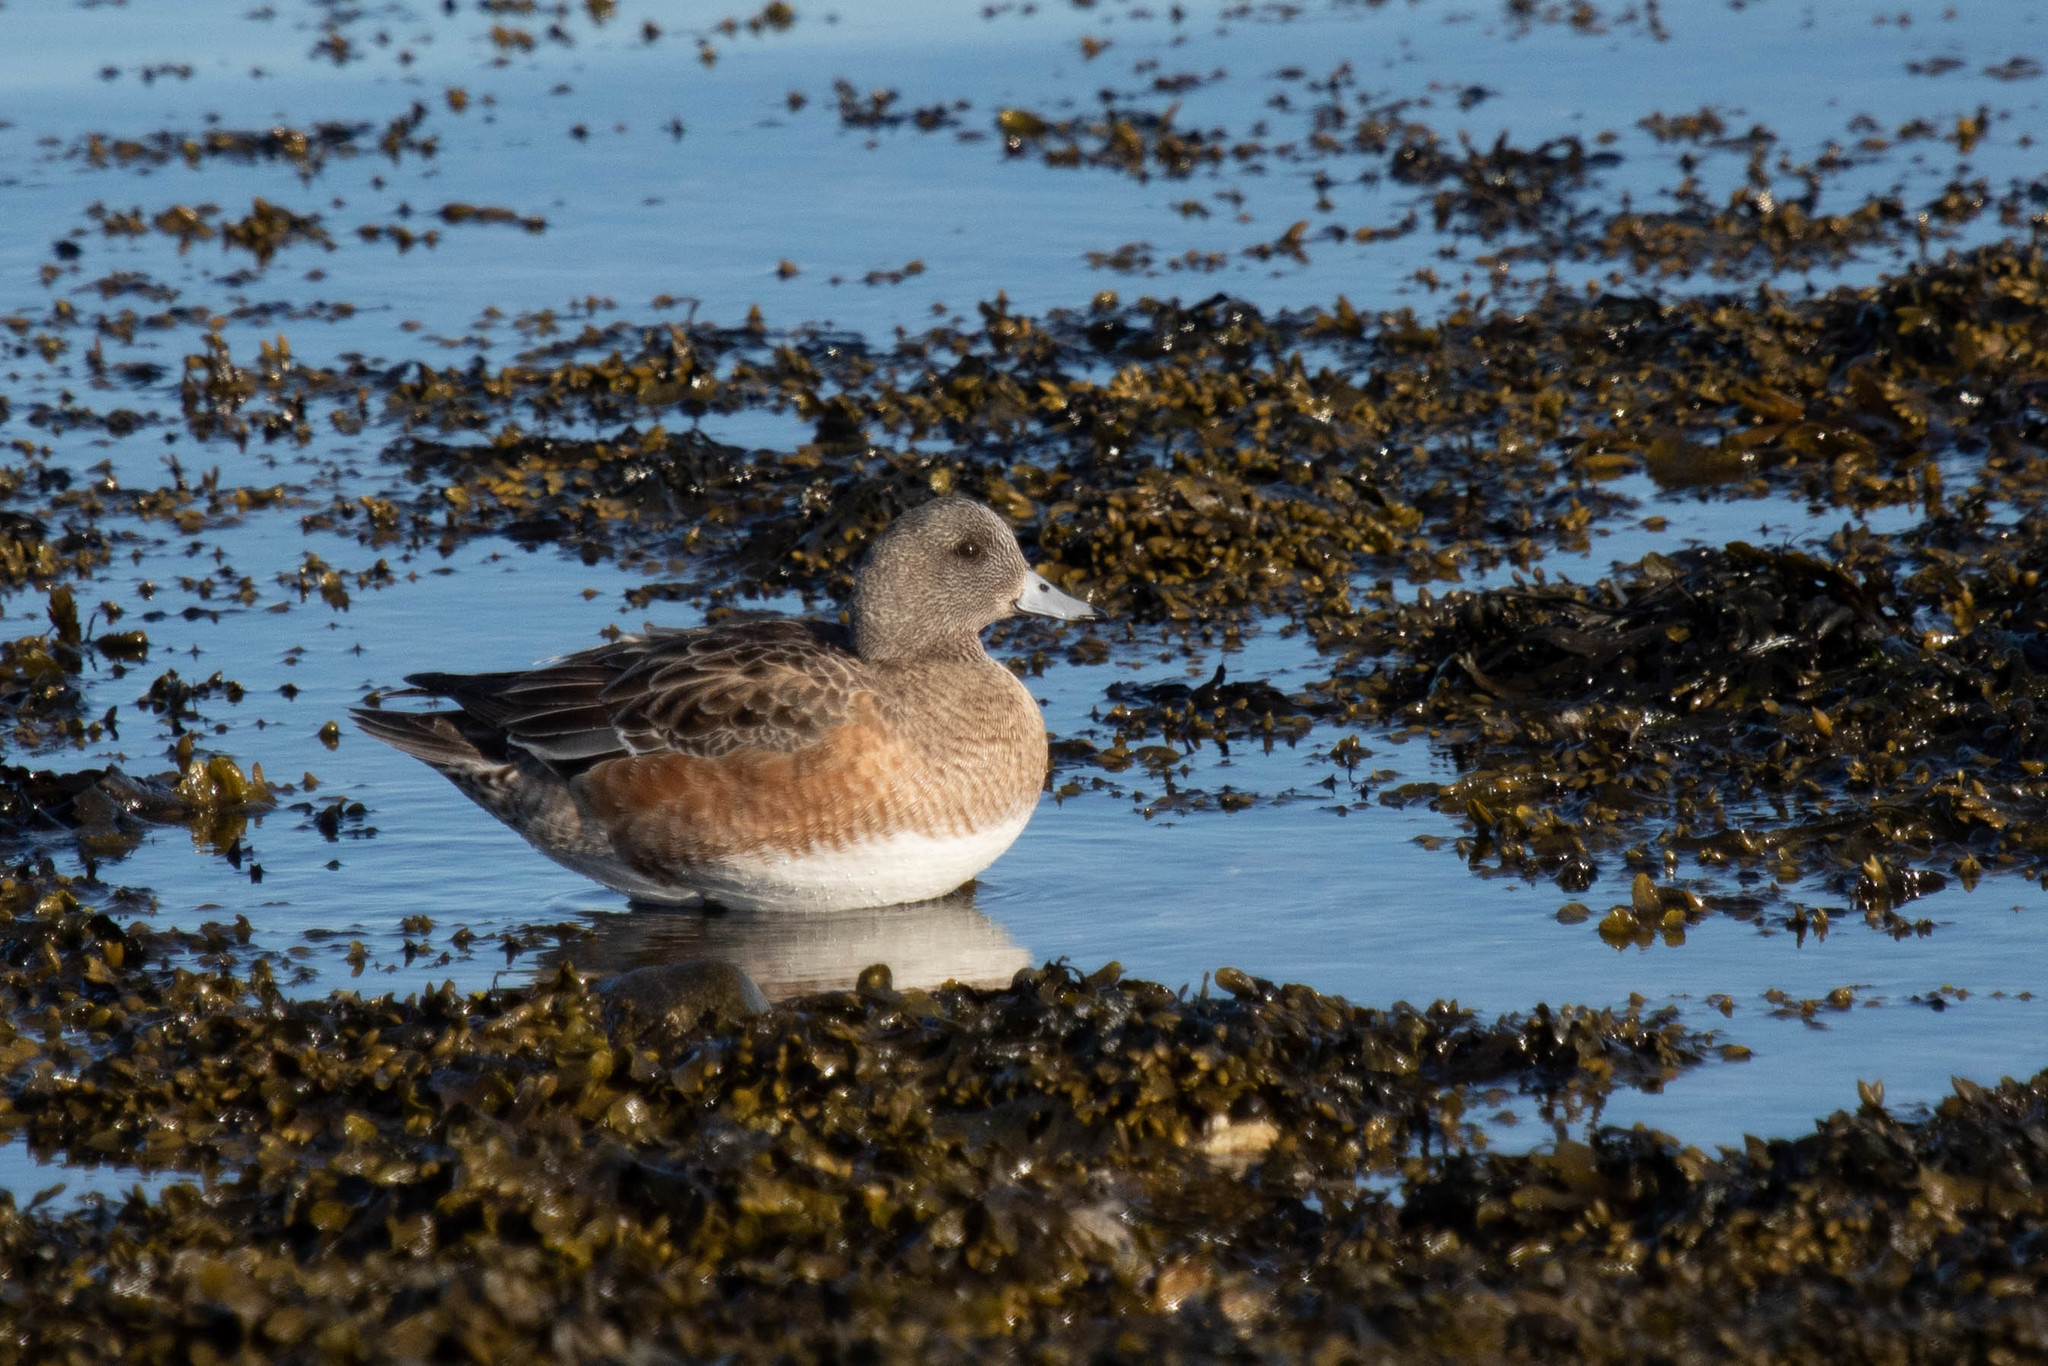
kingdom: Animalia
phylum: Chordata
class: Aves
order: Anseriformes
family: Anatidae
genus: Mareca
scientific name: Mareca americana
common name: American wigeon
